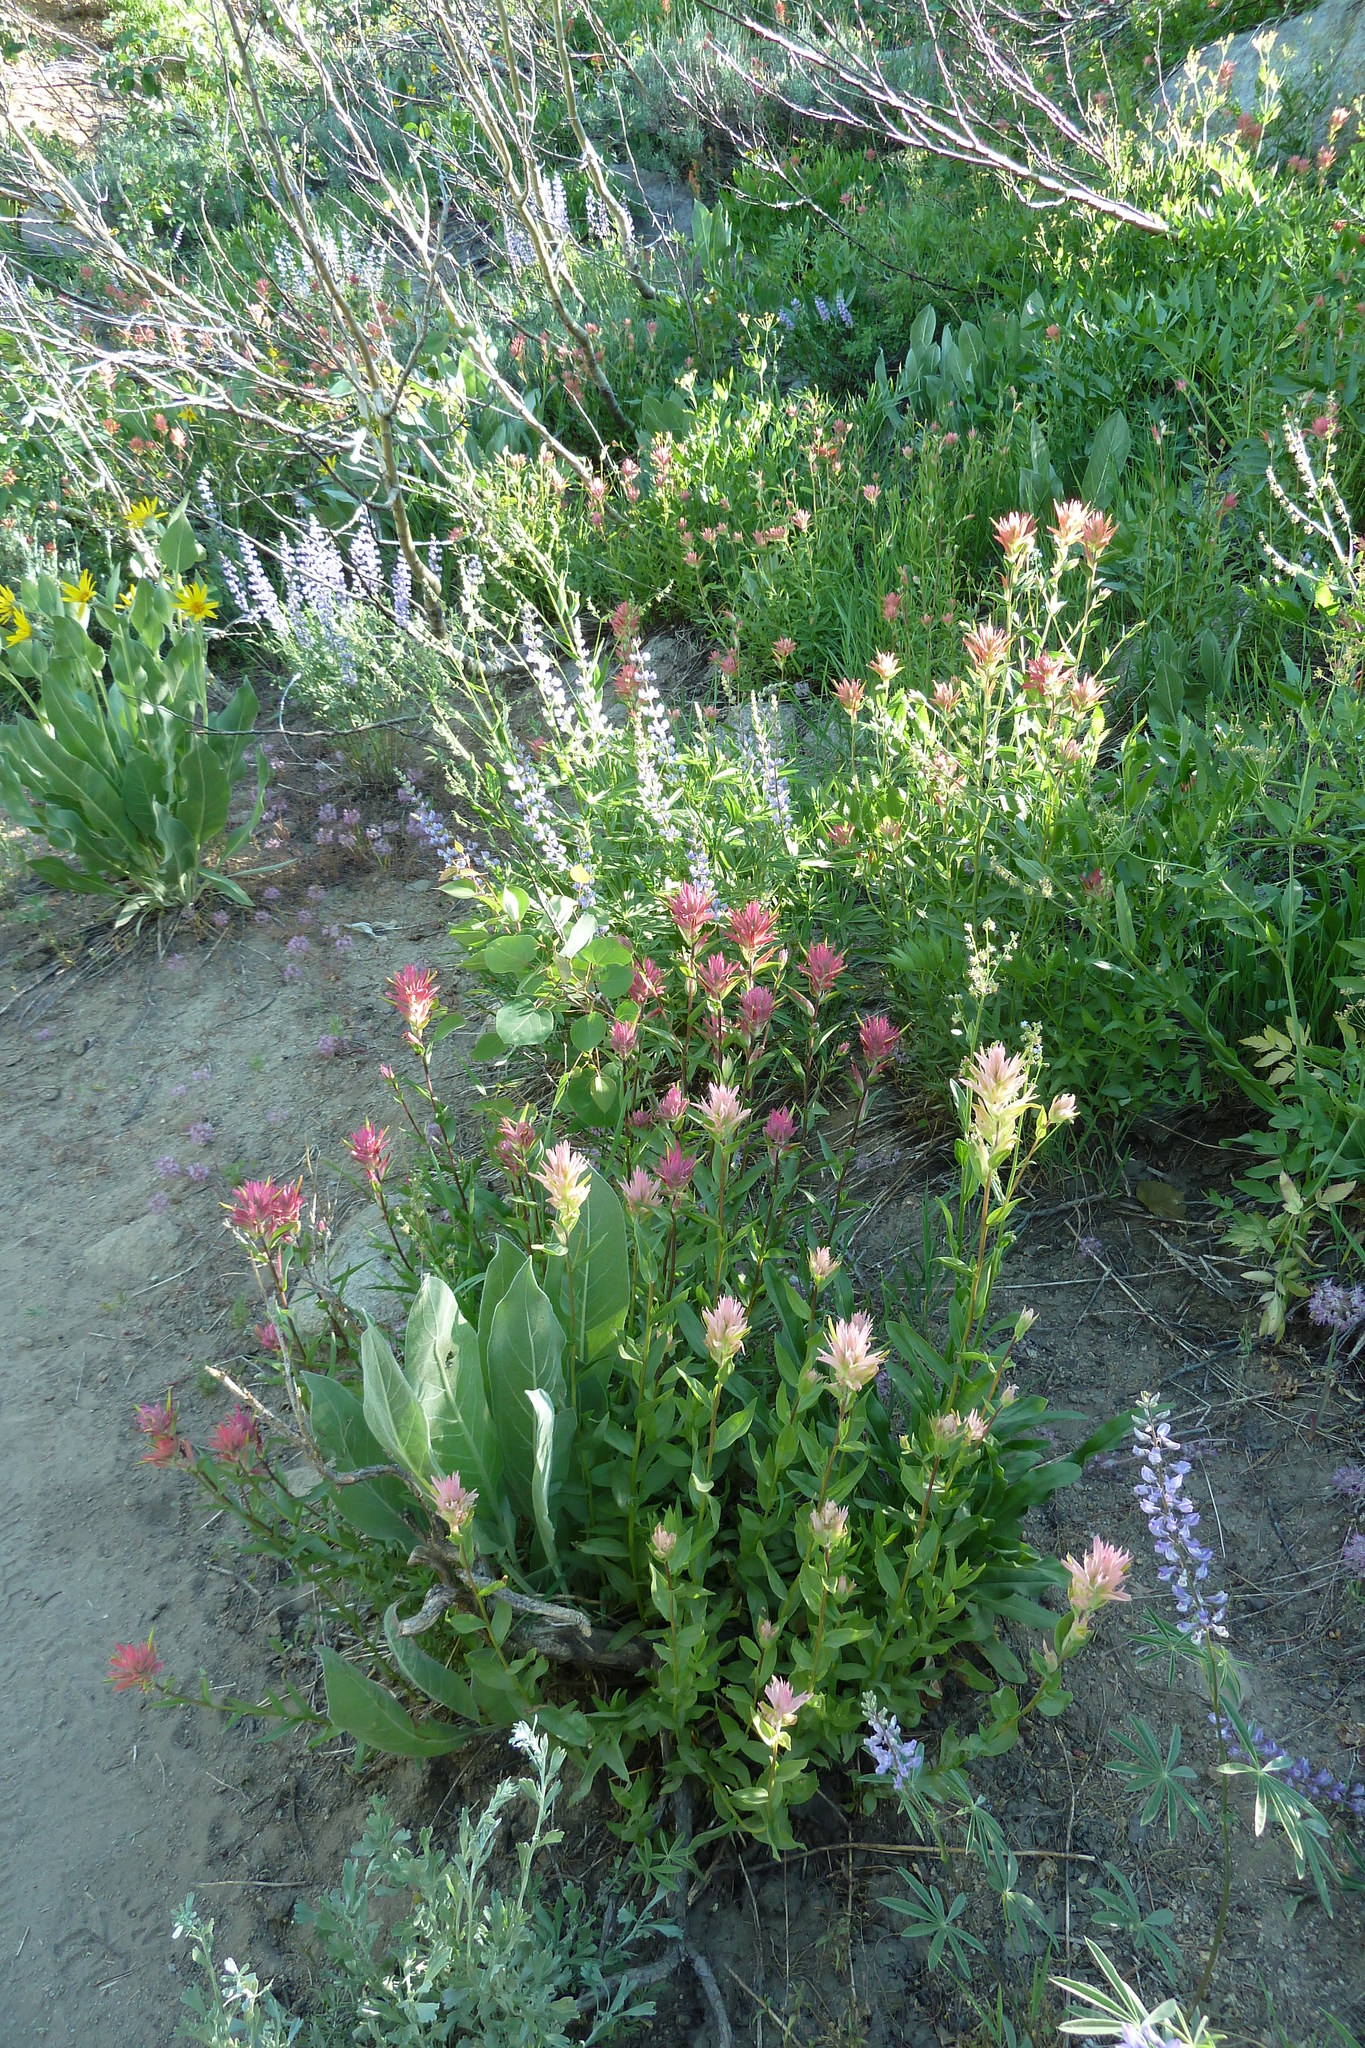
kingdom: Plantae
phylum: Tracheophyta
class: Magnoliopsida
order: Lamiales
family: Orobanchaceae
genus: Castilleja
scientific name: Castilleja miniata
